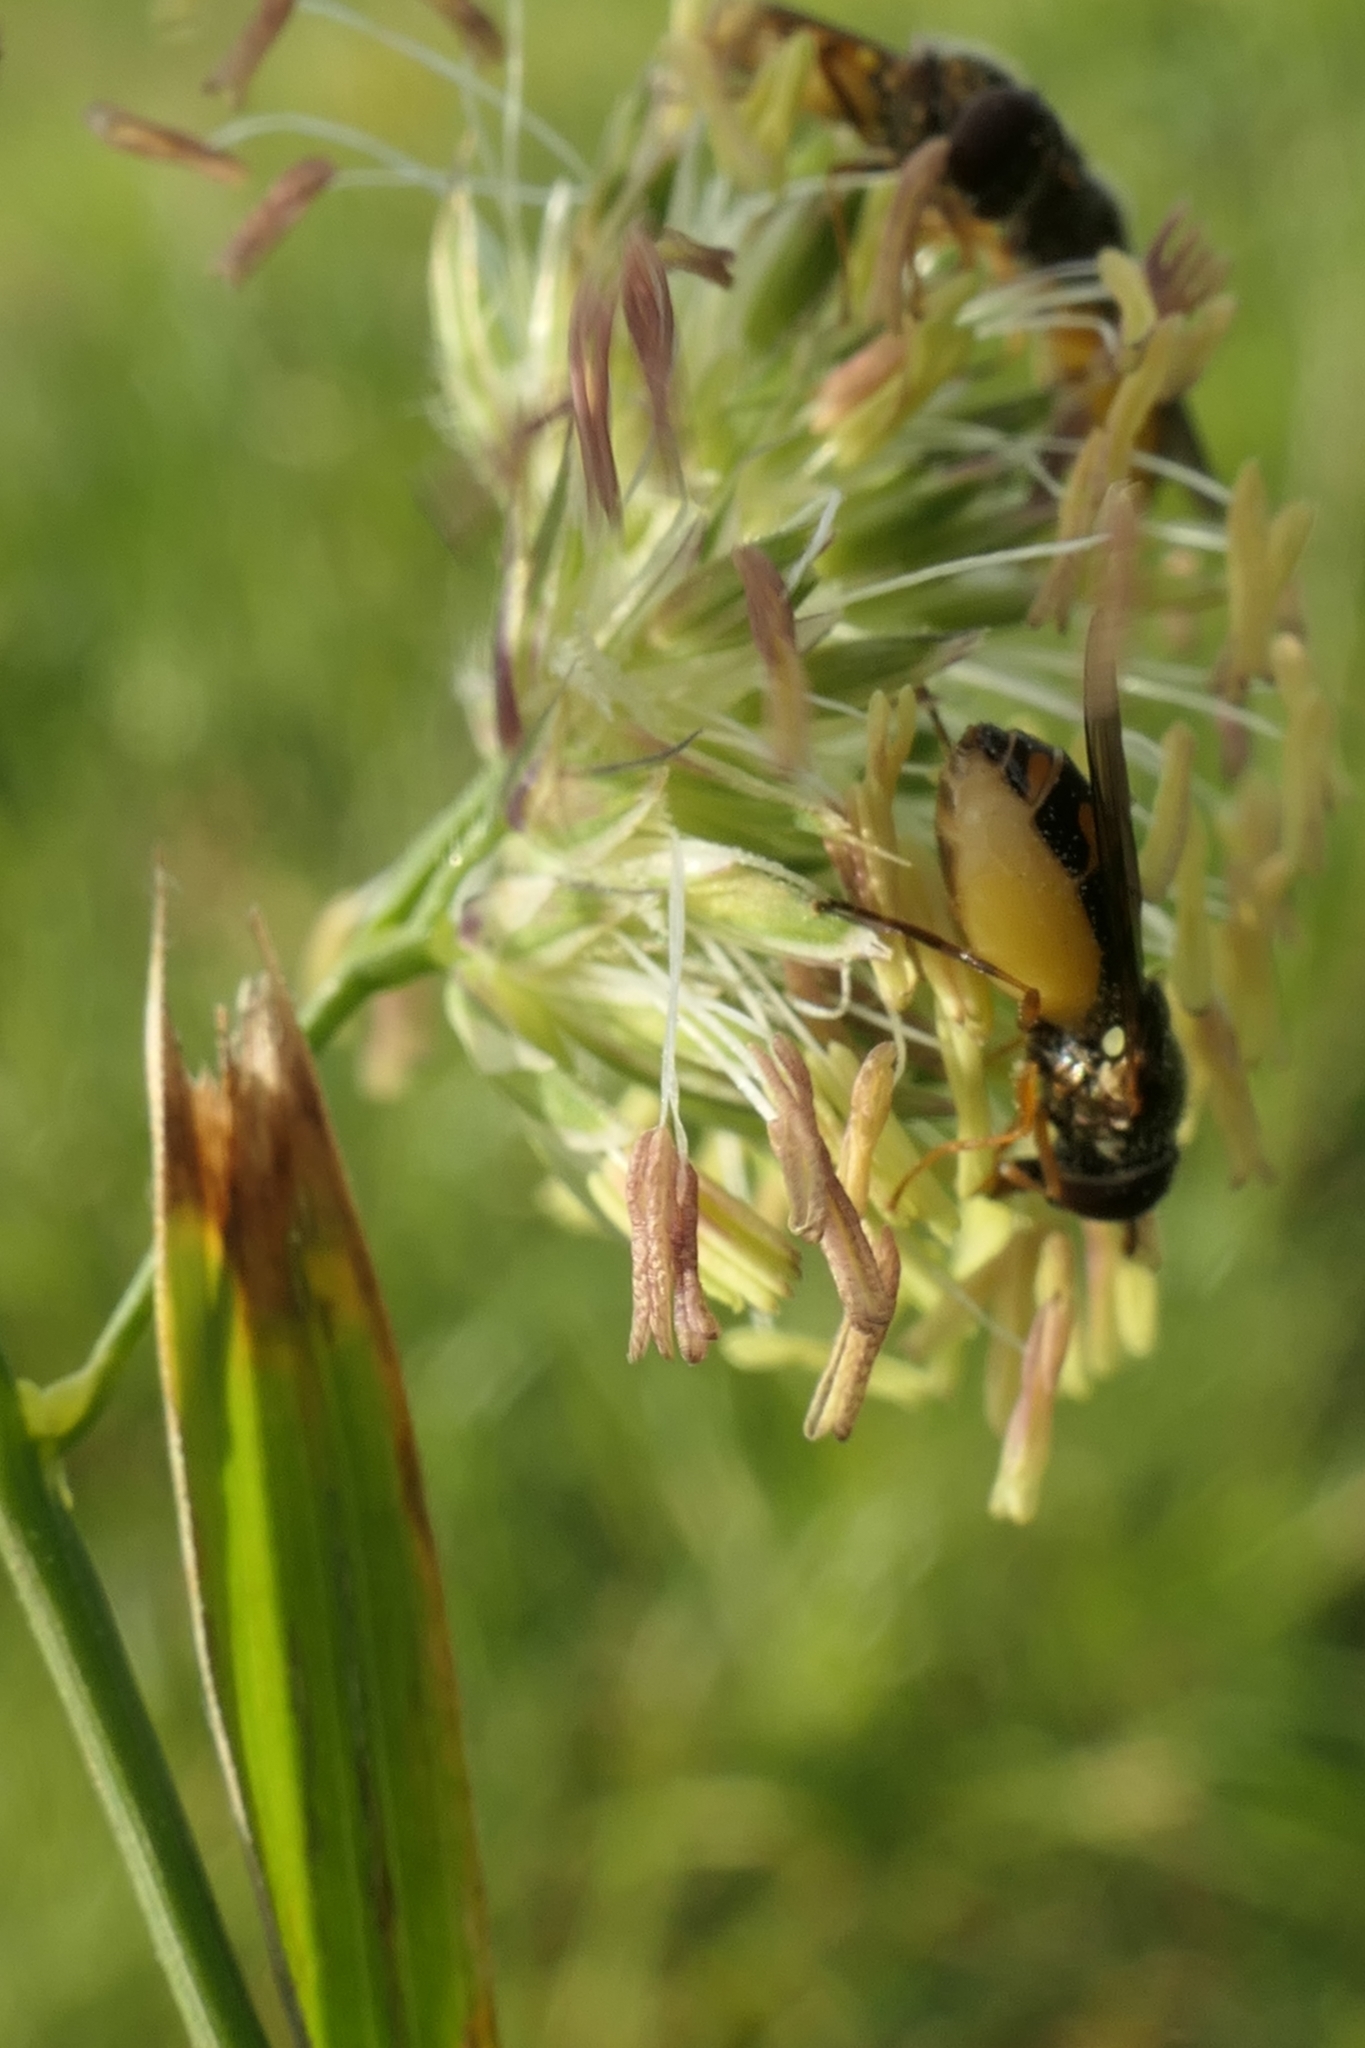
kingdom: Animalia
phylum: Arthropoda
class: Insecta
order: Diptera
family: Syrphidae
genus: Melanostoma
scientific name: Melanostoma fasciatum
